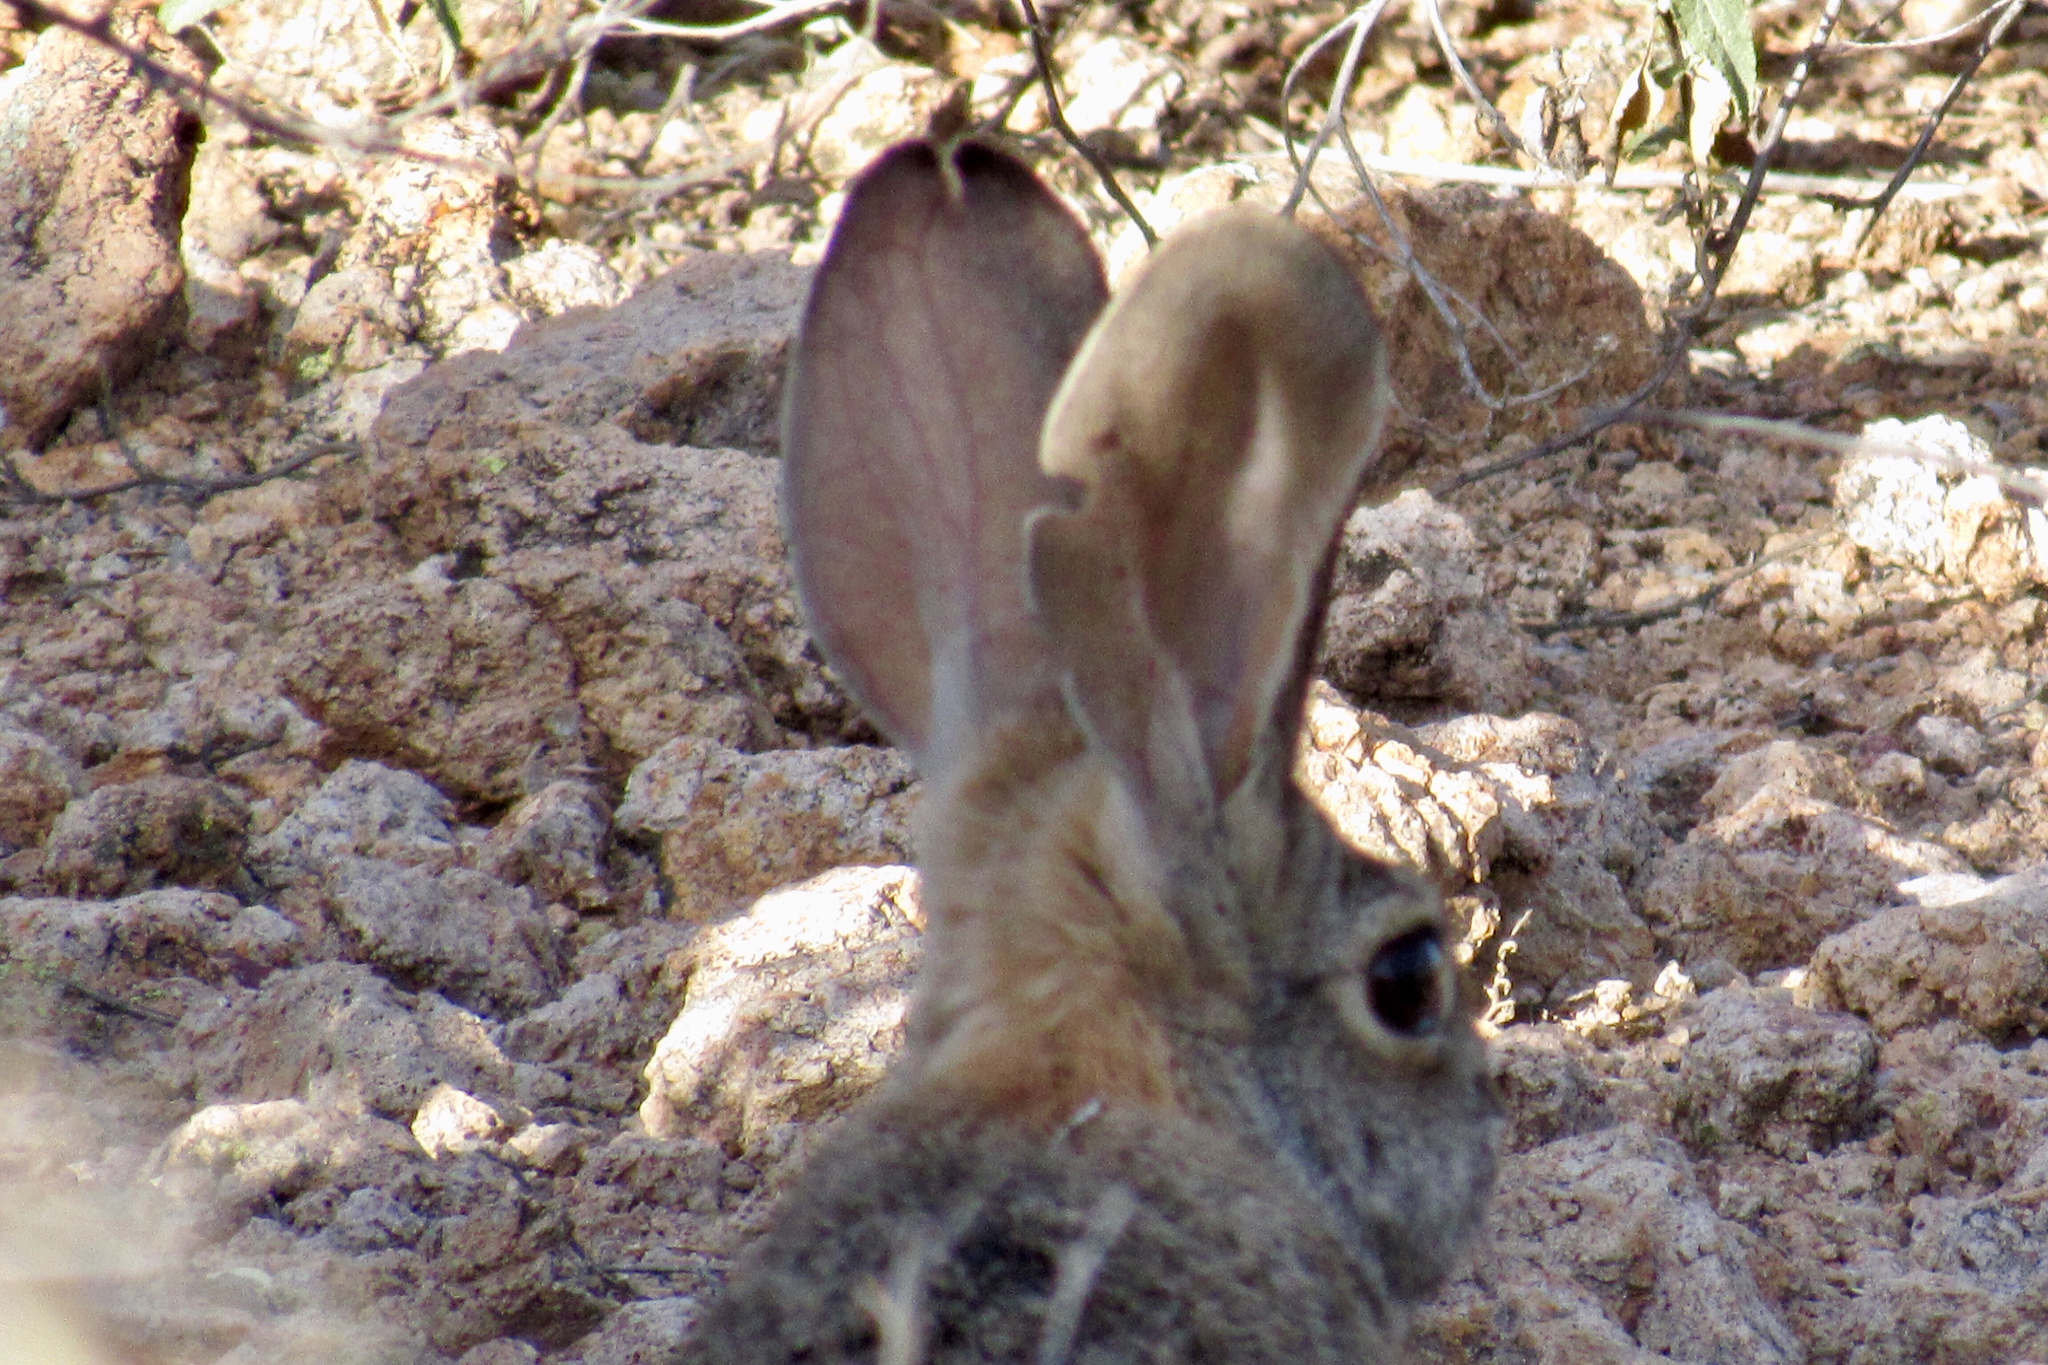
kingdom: Animalia
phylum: Chordata
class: Mammalia
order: Lagomorpha
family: Leporidae
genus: Sylvilagus
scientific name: Sylvilagus audubonii
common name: Desert cottontail
